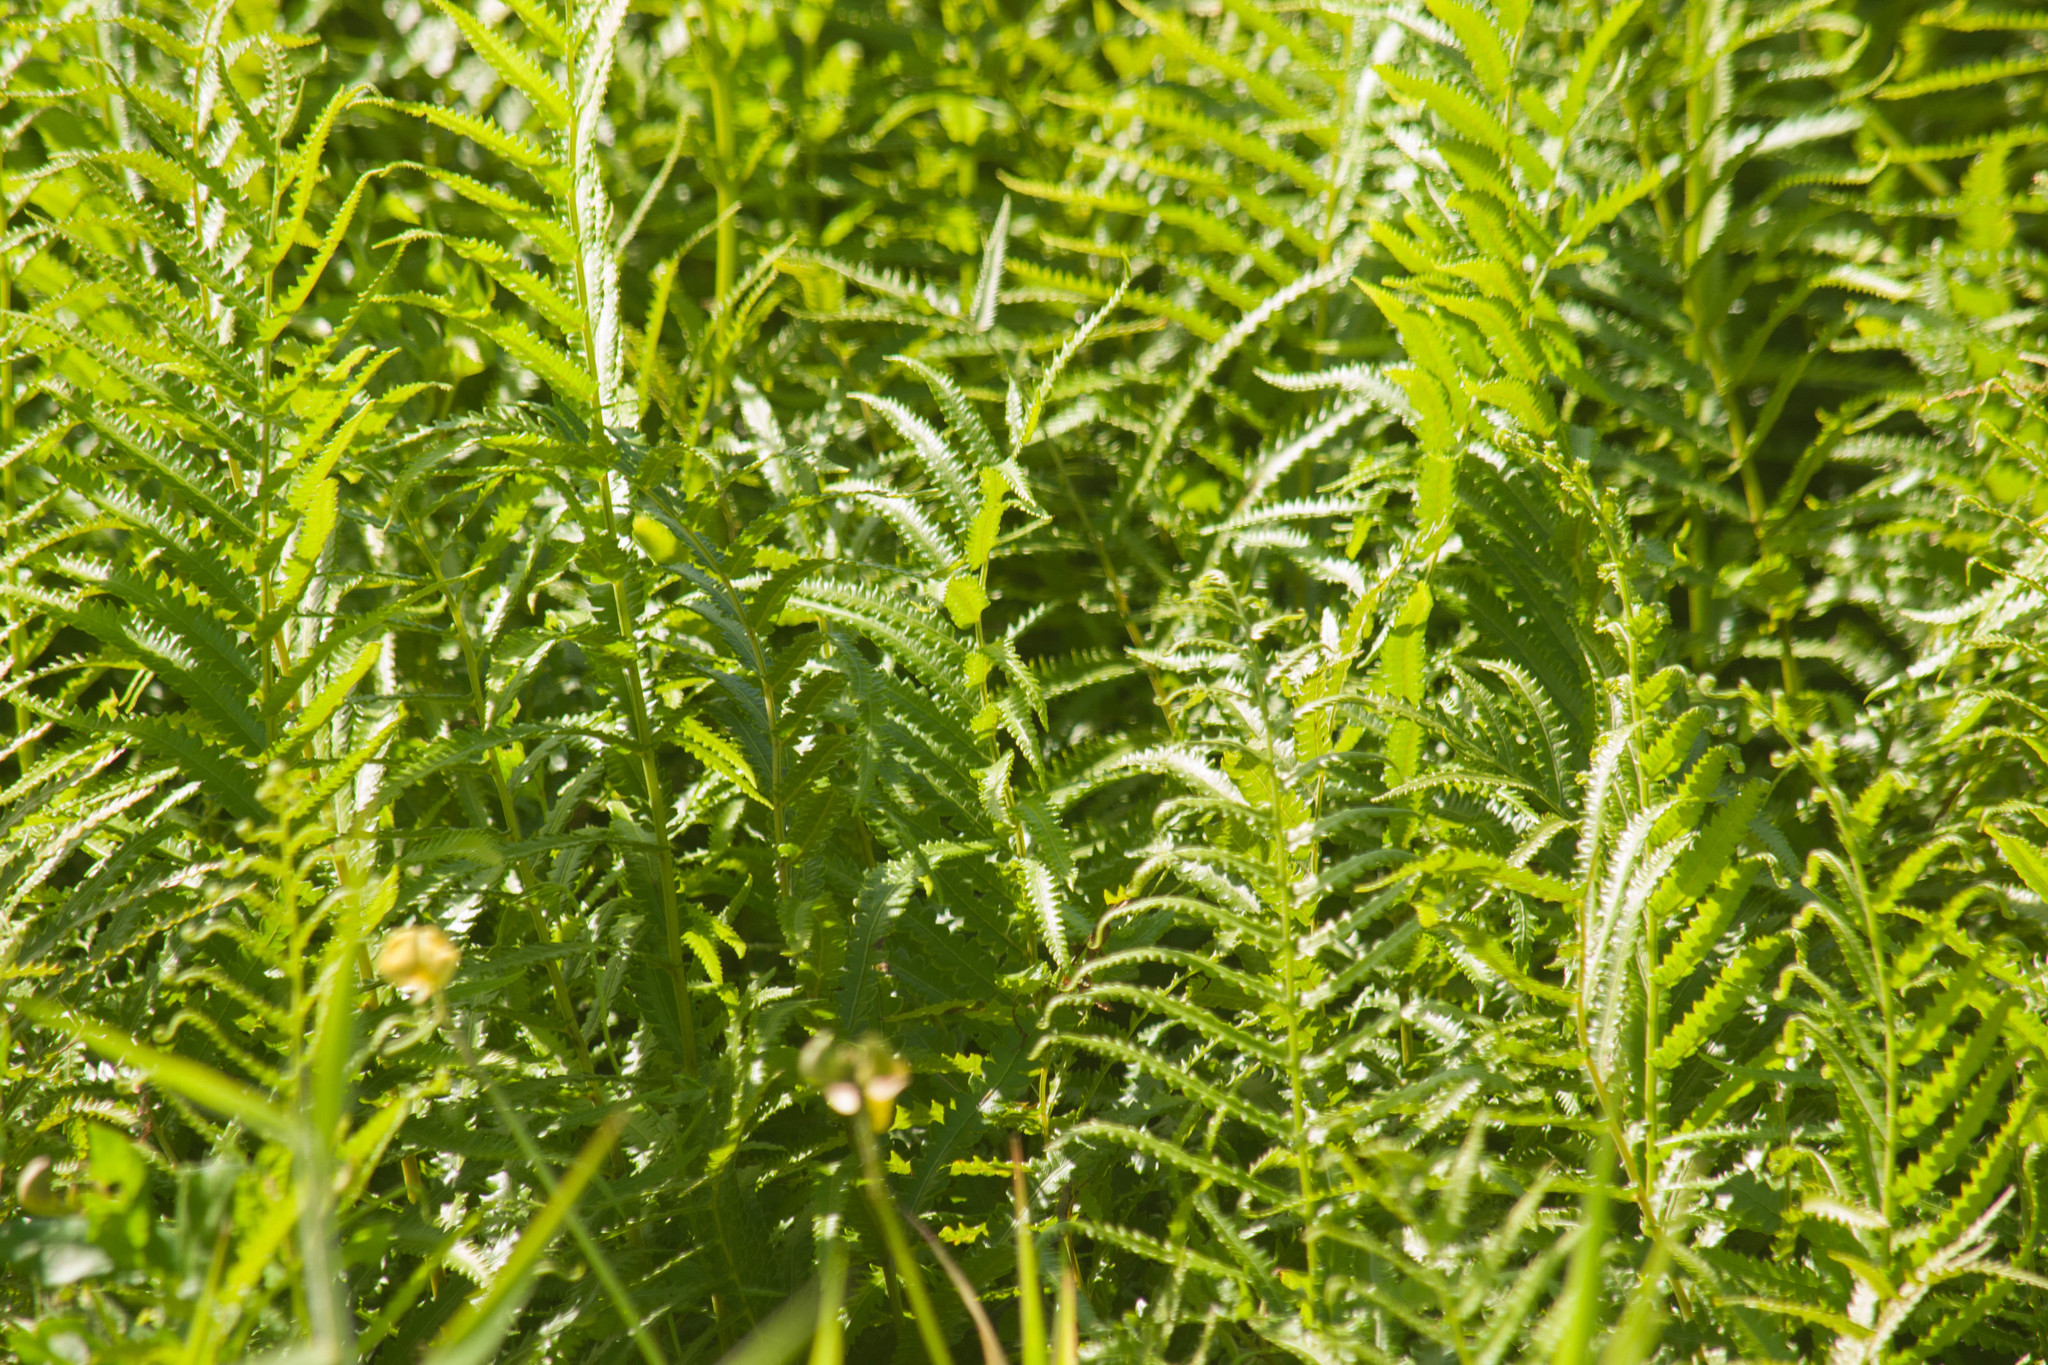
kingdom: Plantae
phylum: Tracheophyta
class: Polypodiopsida
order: Polypodiales
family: Thelypteridaceae
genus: Cyclosorus
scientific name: Cyclosorus interruptus
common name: Neke fern
